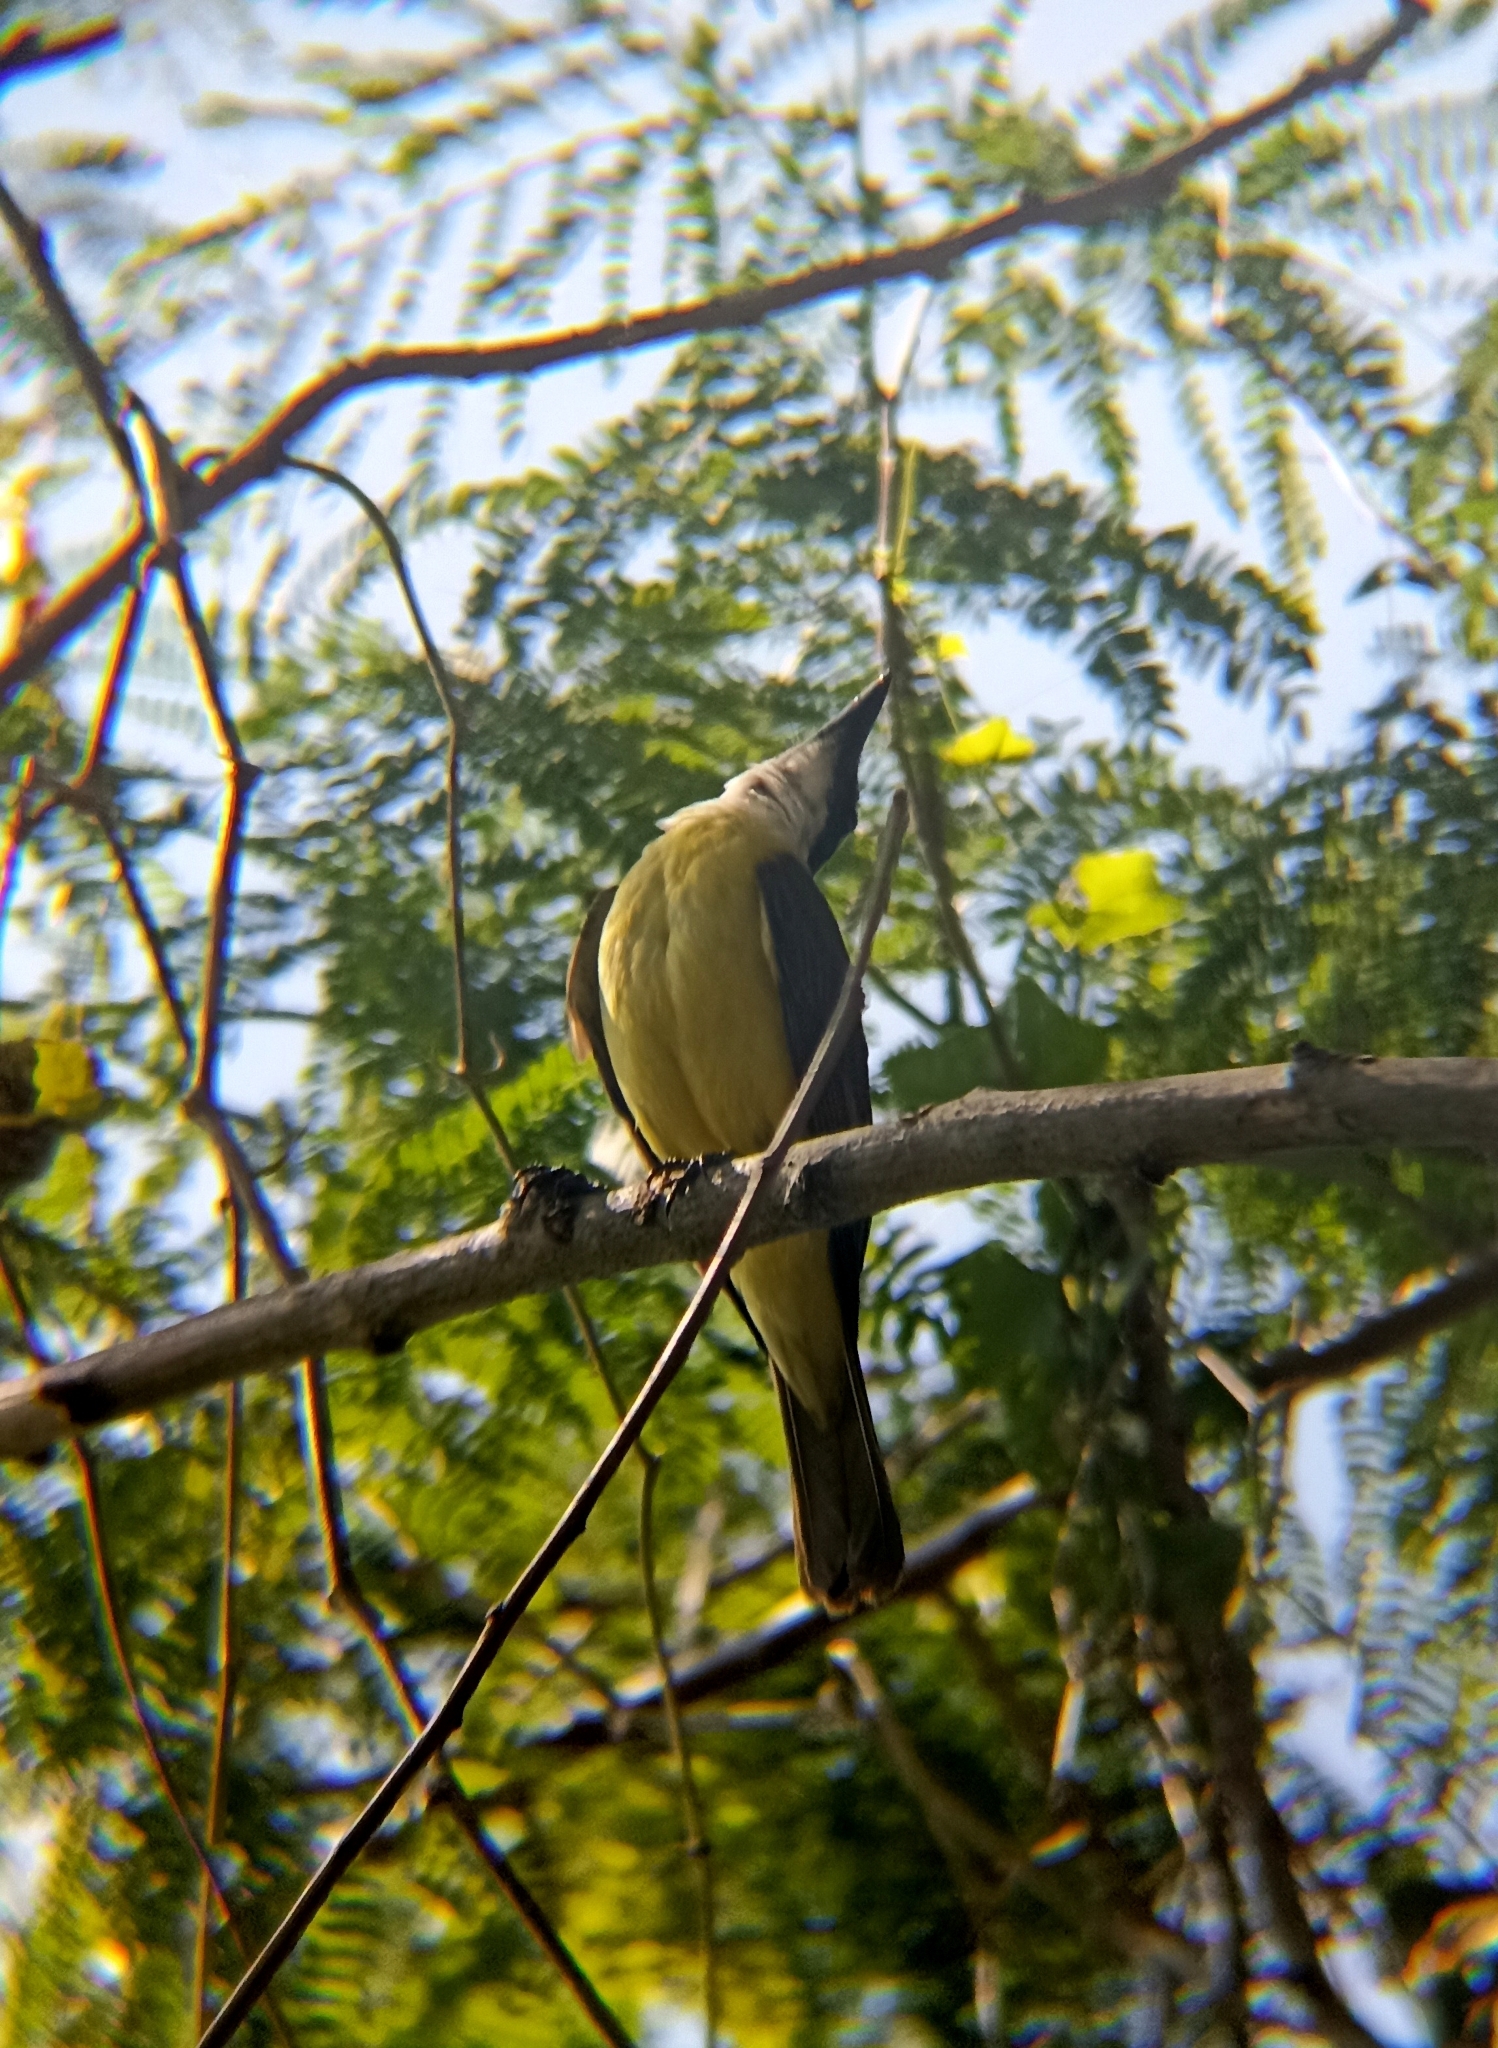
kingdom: Animalia
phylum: Chordata
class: Aves
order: Passeriformes
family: Tyrannidae
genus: Pitangus
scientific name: Pitangus sulphuratus
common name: Great kiskadee
